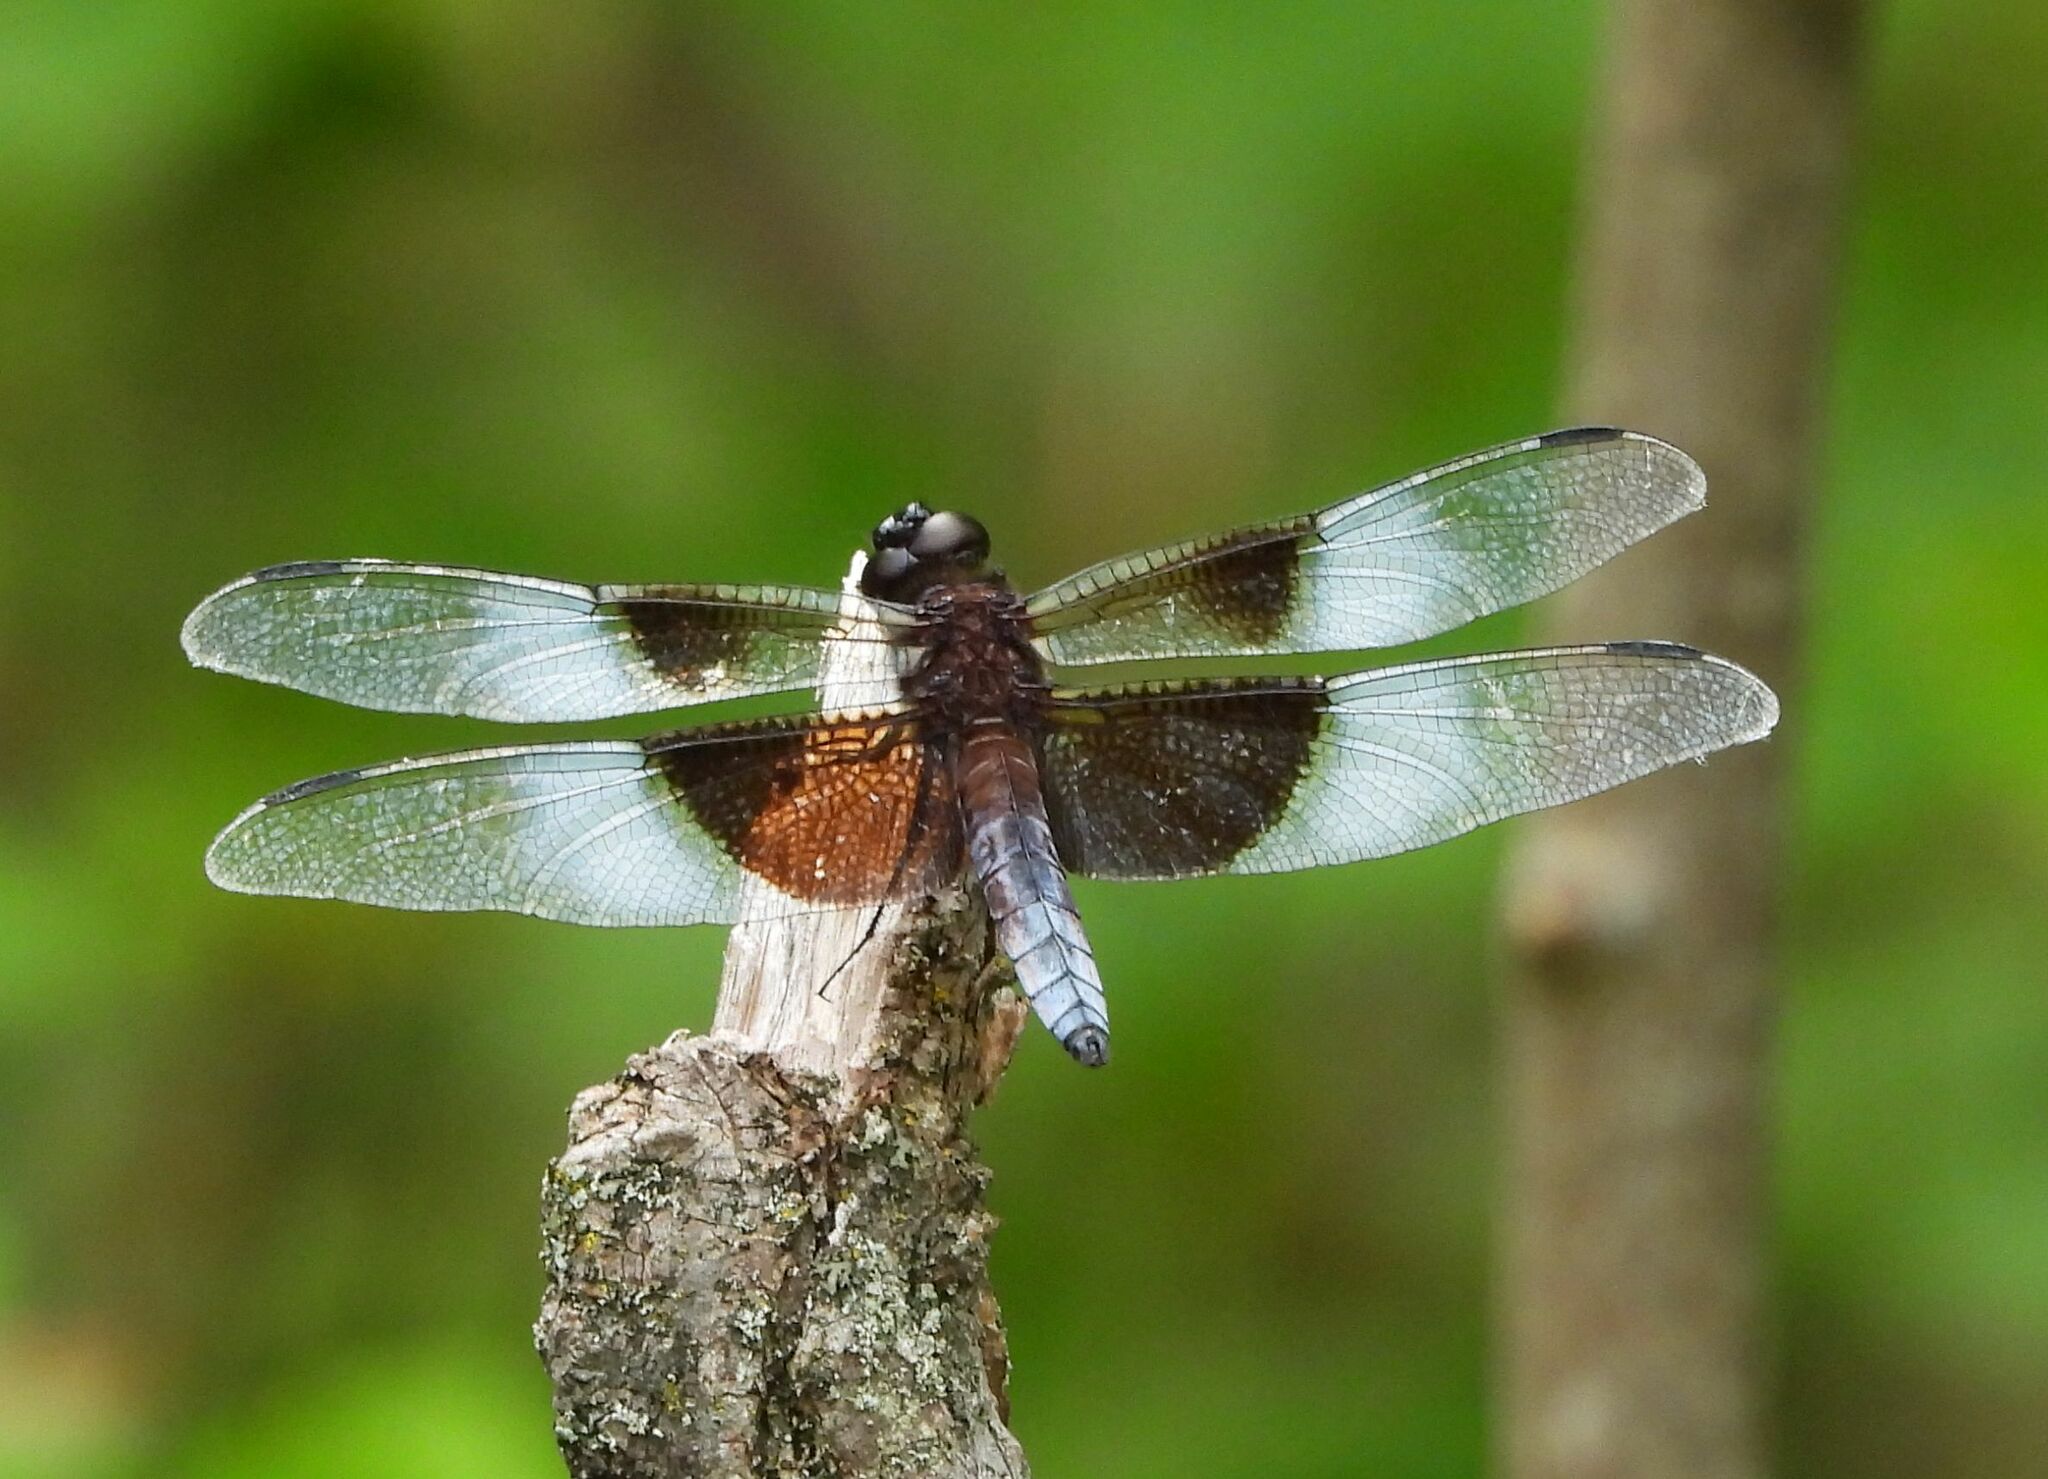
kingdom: Animalia
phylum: Arthropoda
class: Insecta
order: Odonata
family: Libellulidae
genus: Libellula
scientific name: Libellula luctuosa
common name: Widow skimmer
